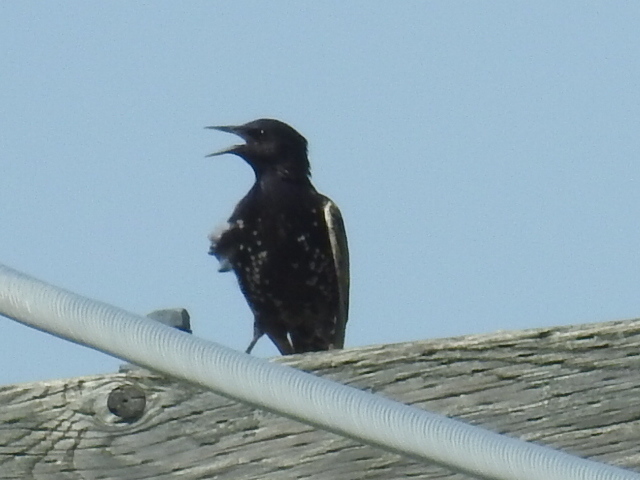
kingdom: Animalia
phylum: Chordata
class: Aves
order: Passeriformes
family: Sturnidae
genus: Sturnus
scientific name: Sturnus vulgaris
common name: Common starling
